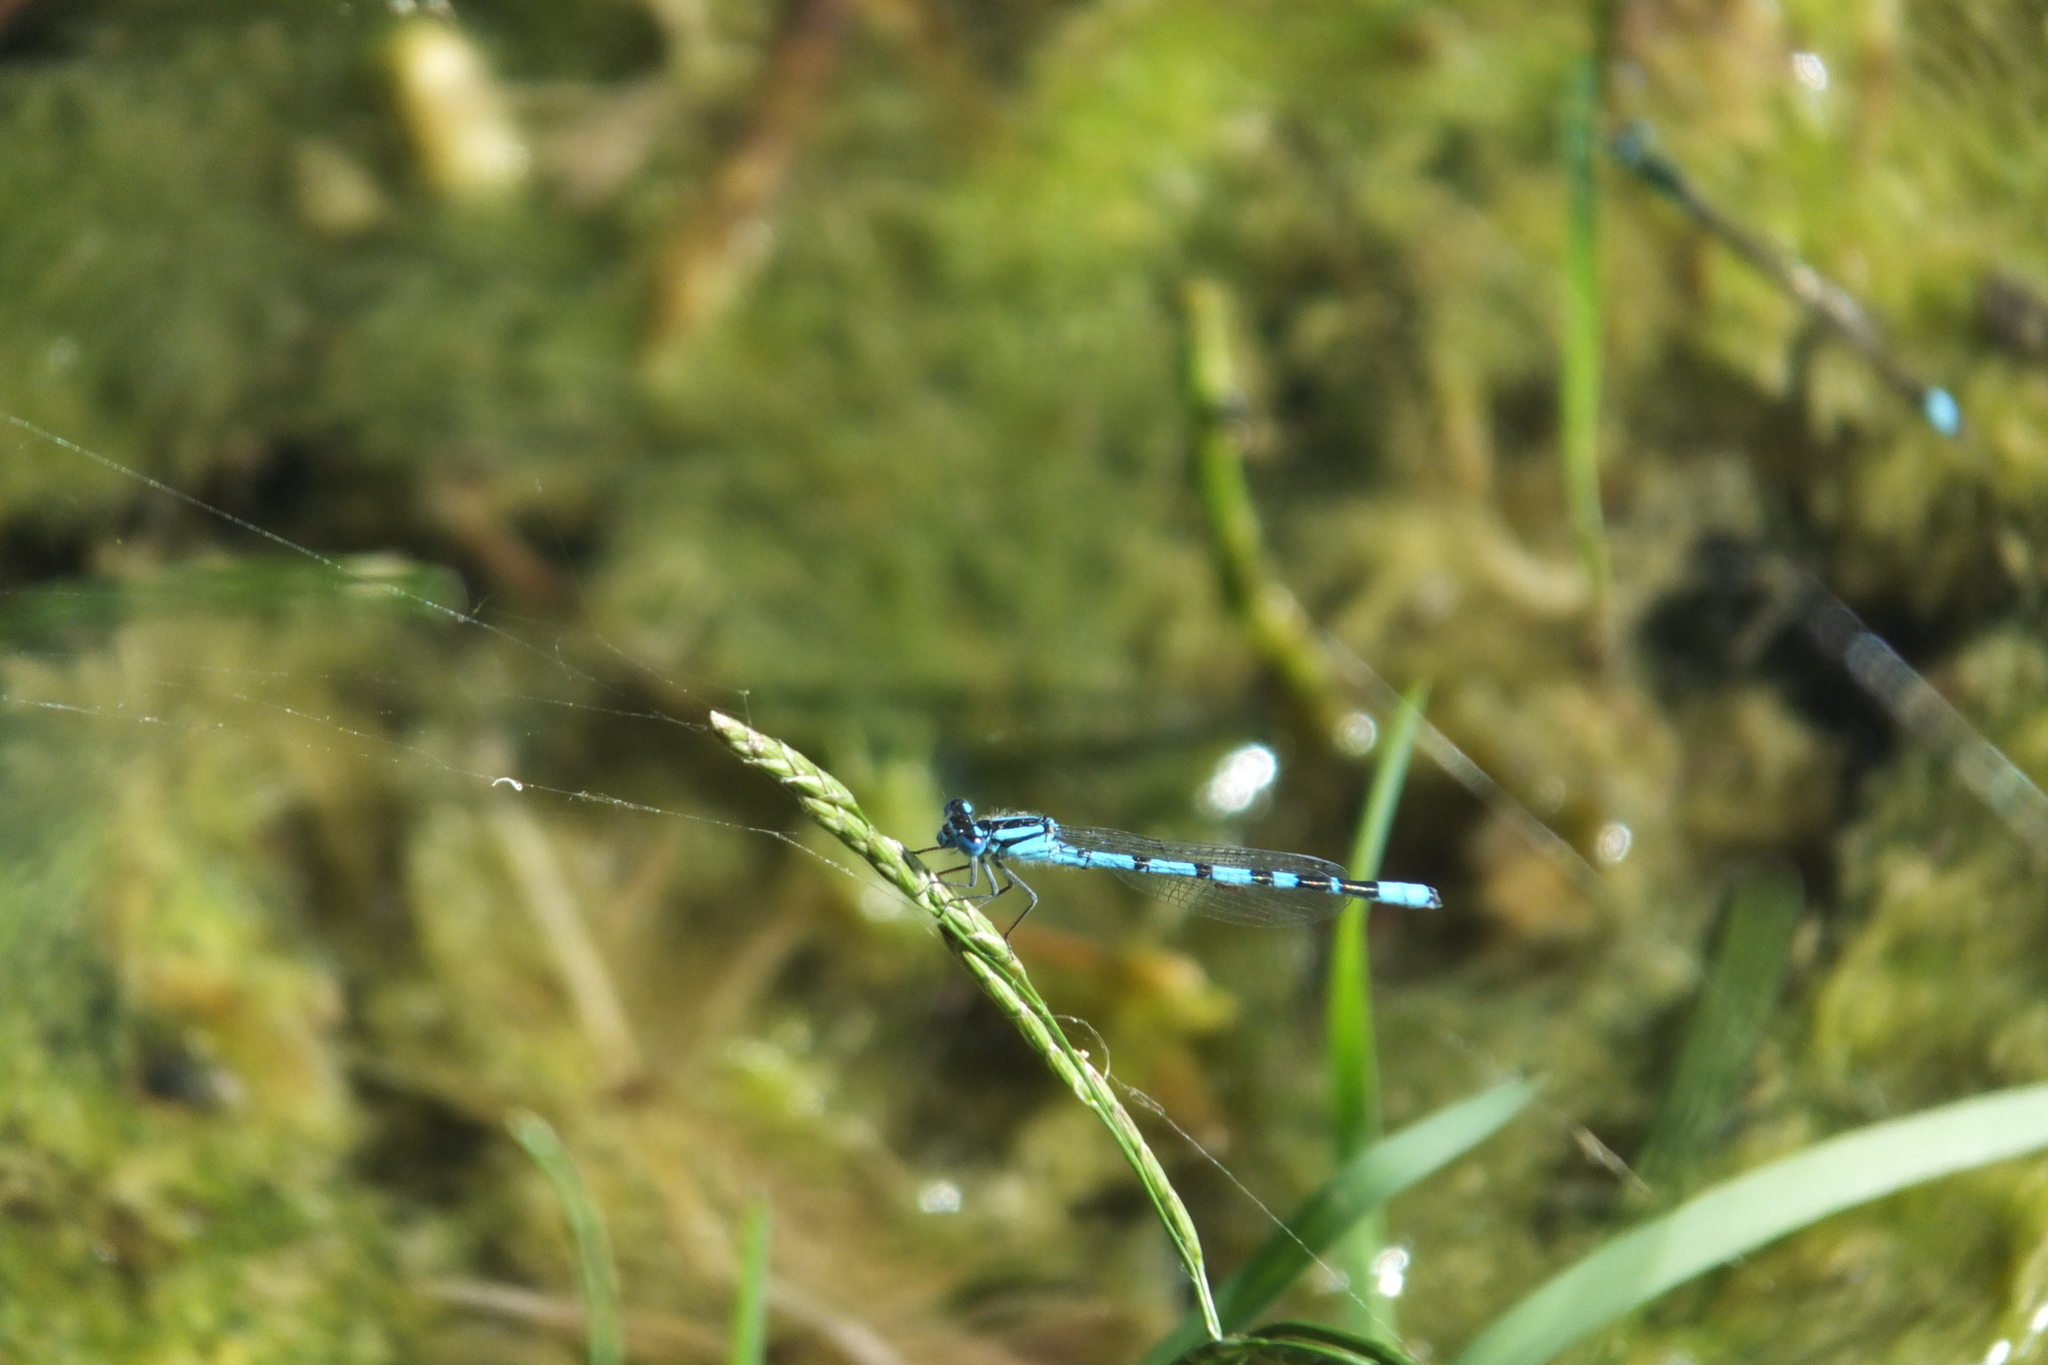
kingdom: Animalia
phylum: Arthropoda
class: Insecta
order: Odonata
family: Coenagrionidae
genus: Enallagma
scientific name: Enallagma cyathigerum
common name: Common blue damselfly
